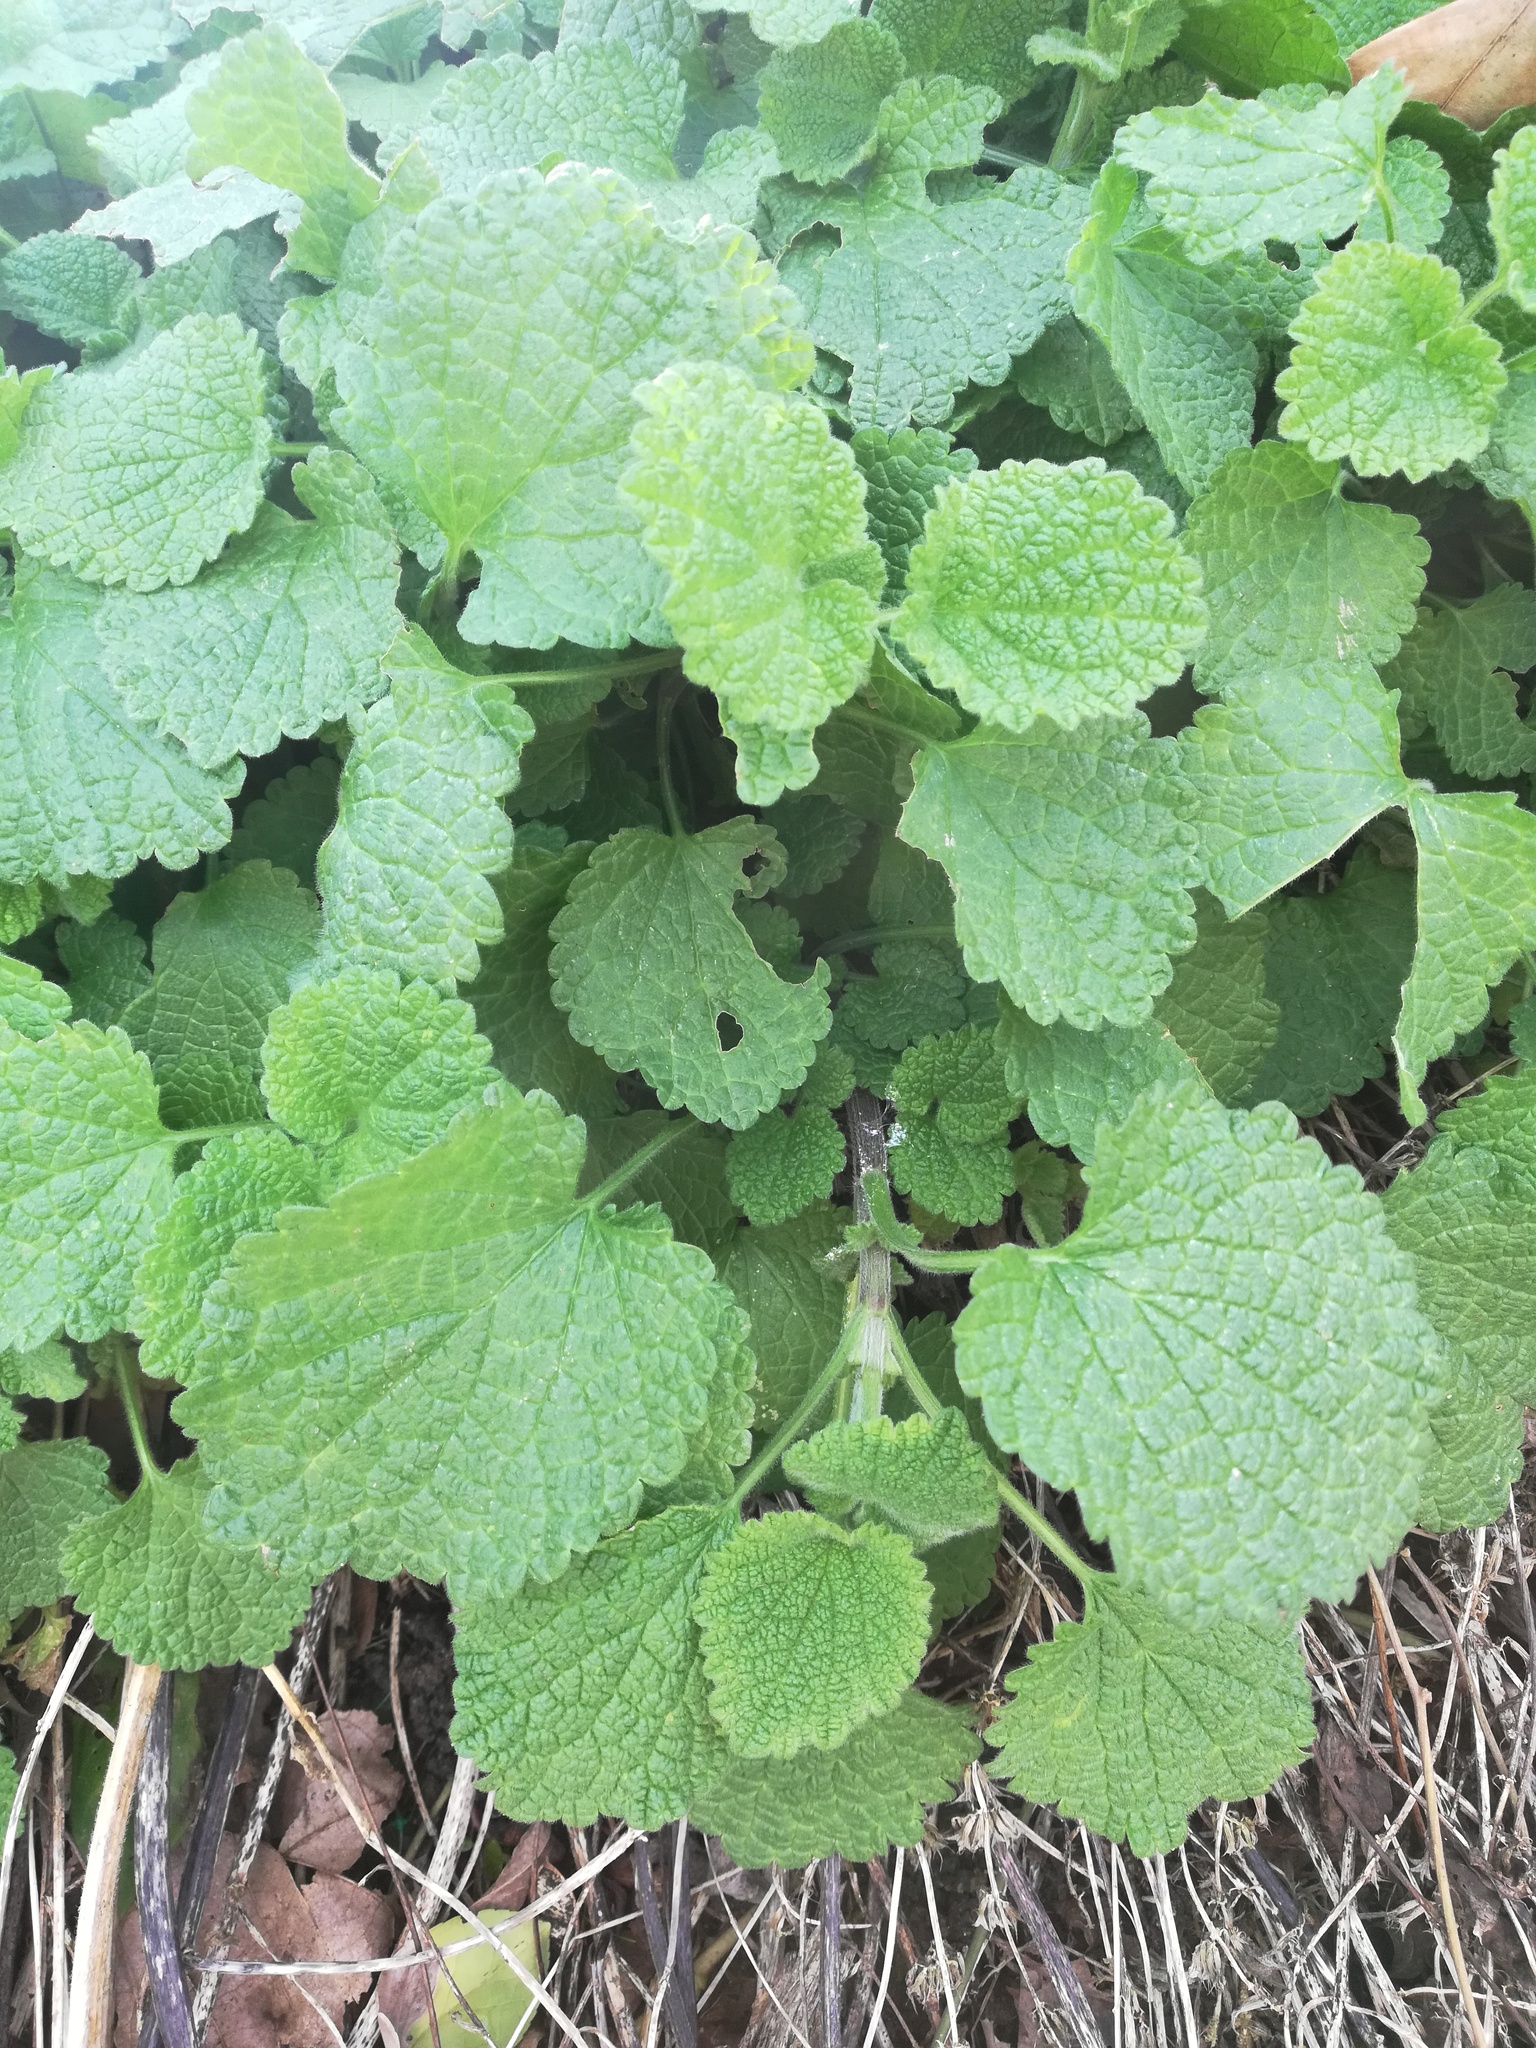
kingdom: Plantae
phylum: Tracheophyta
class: Magnoliopsida
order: Lamiales
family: Lamiaceae
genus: Ballota
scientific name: Ballota nigra
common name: Black horehound
